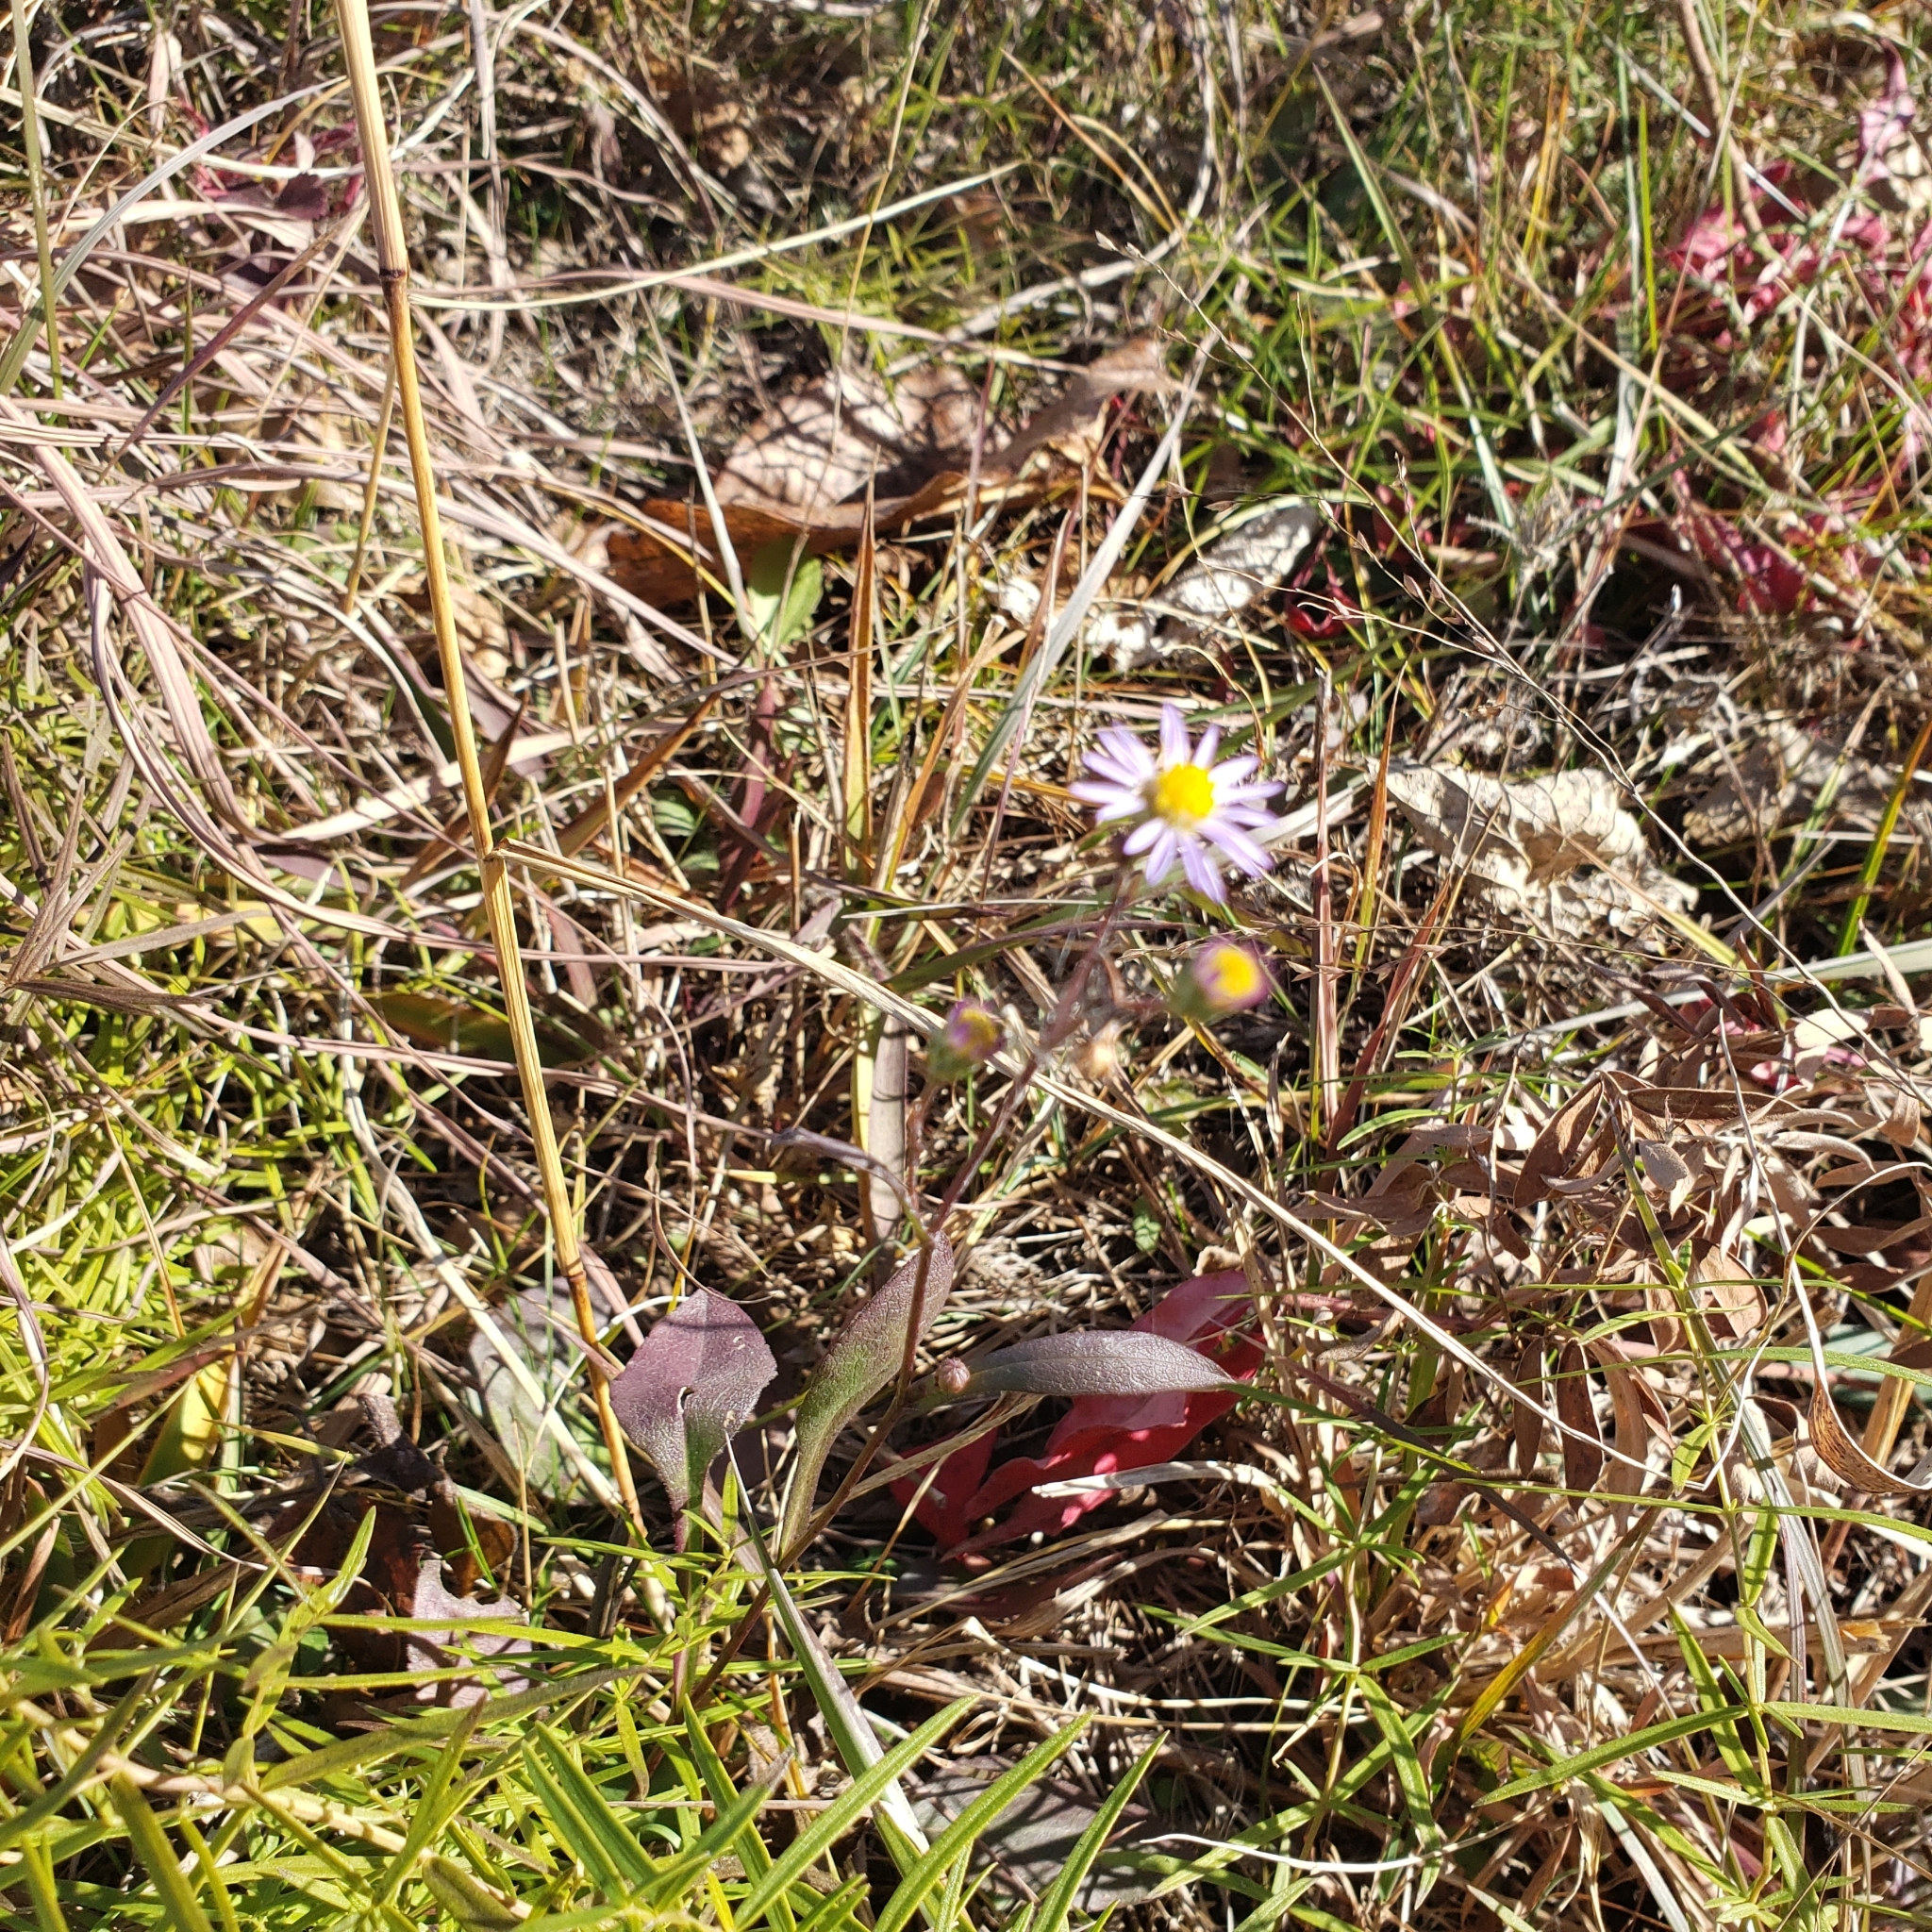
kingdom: Plantae
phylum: Tracheophyta
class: Magnoliopsida
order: Asterales
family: Asteraceae
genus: Symphyotrichum
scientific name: Symphyotrichum laeve
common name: Glaucous aster
